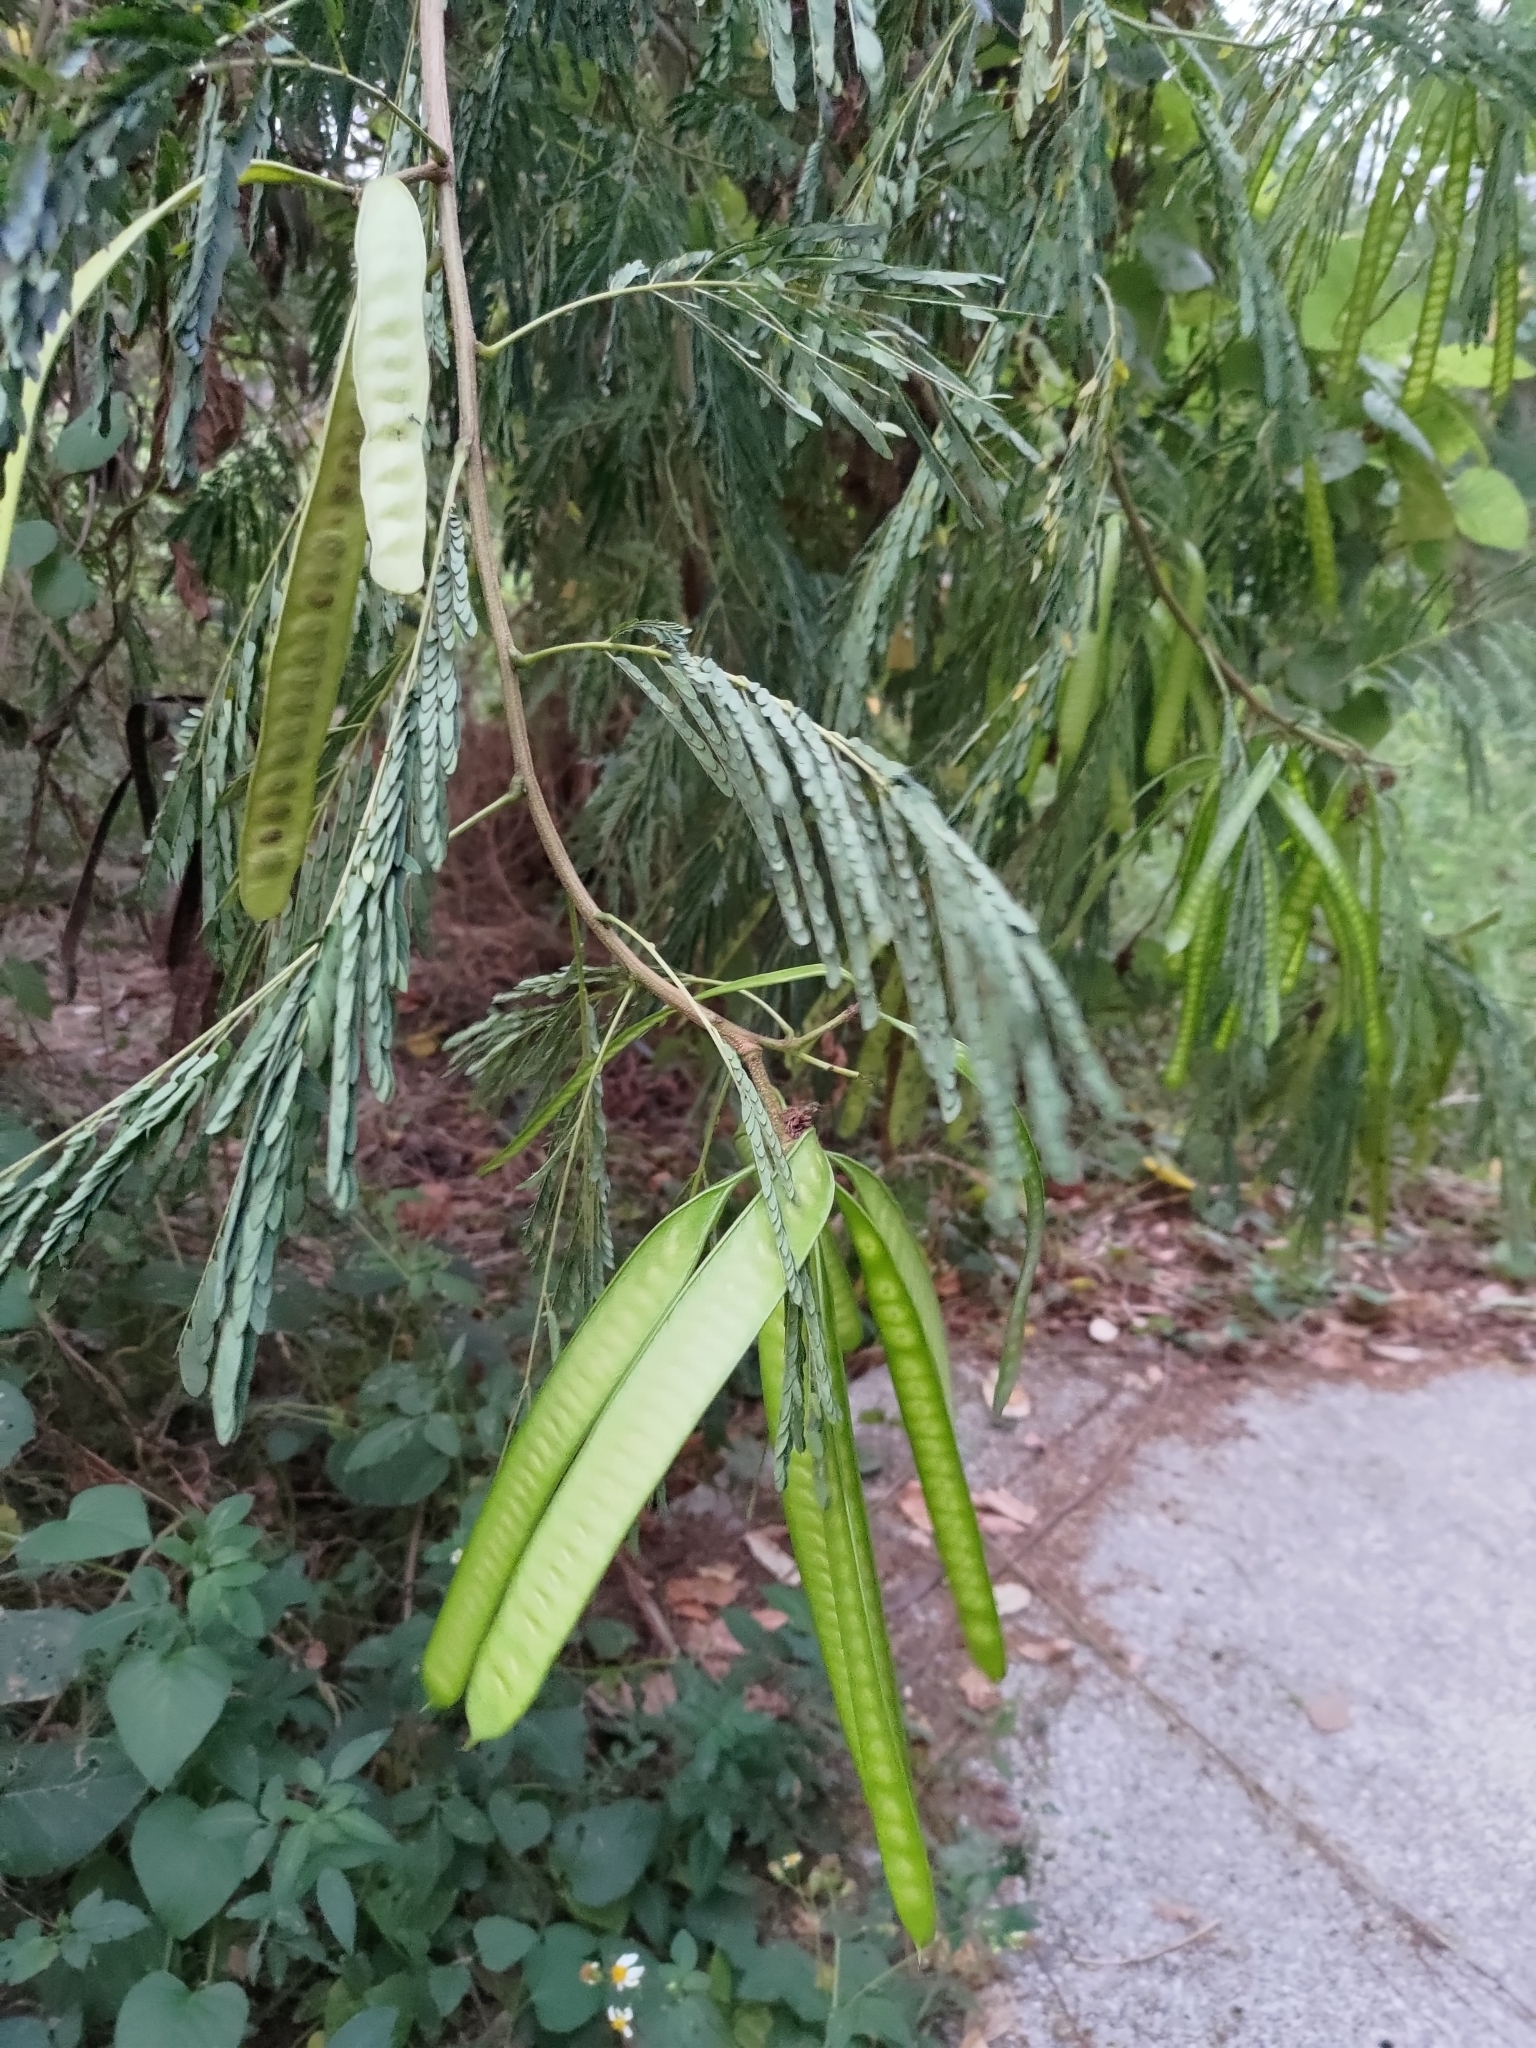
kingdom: Plantae
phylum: Tracheophyta
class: Magnoliopsida
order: Fabales
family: Fabaceae
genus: Leucaena
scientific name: Leucaena leucocephala
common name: White leadtree
